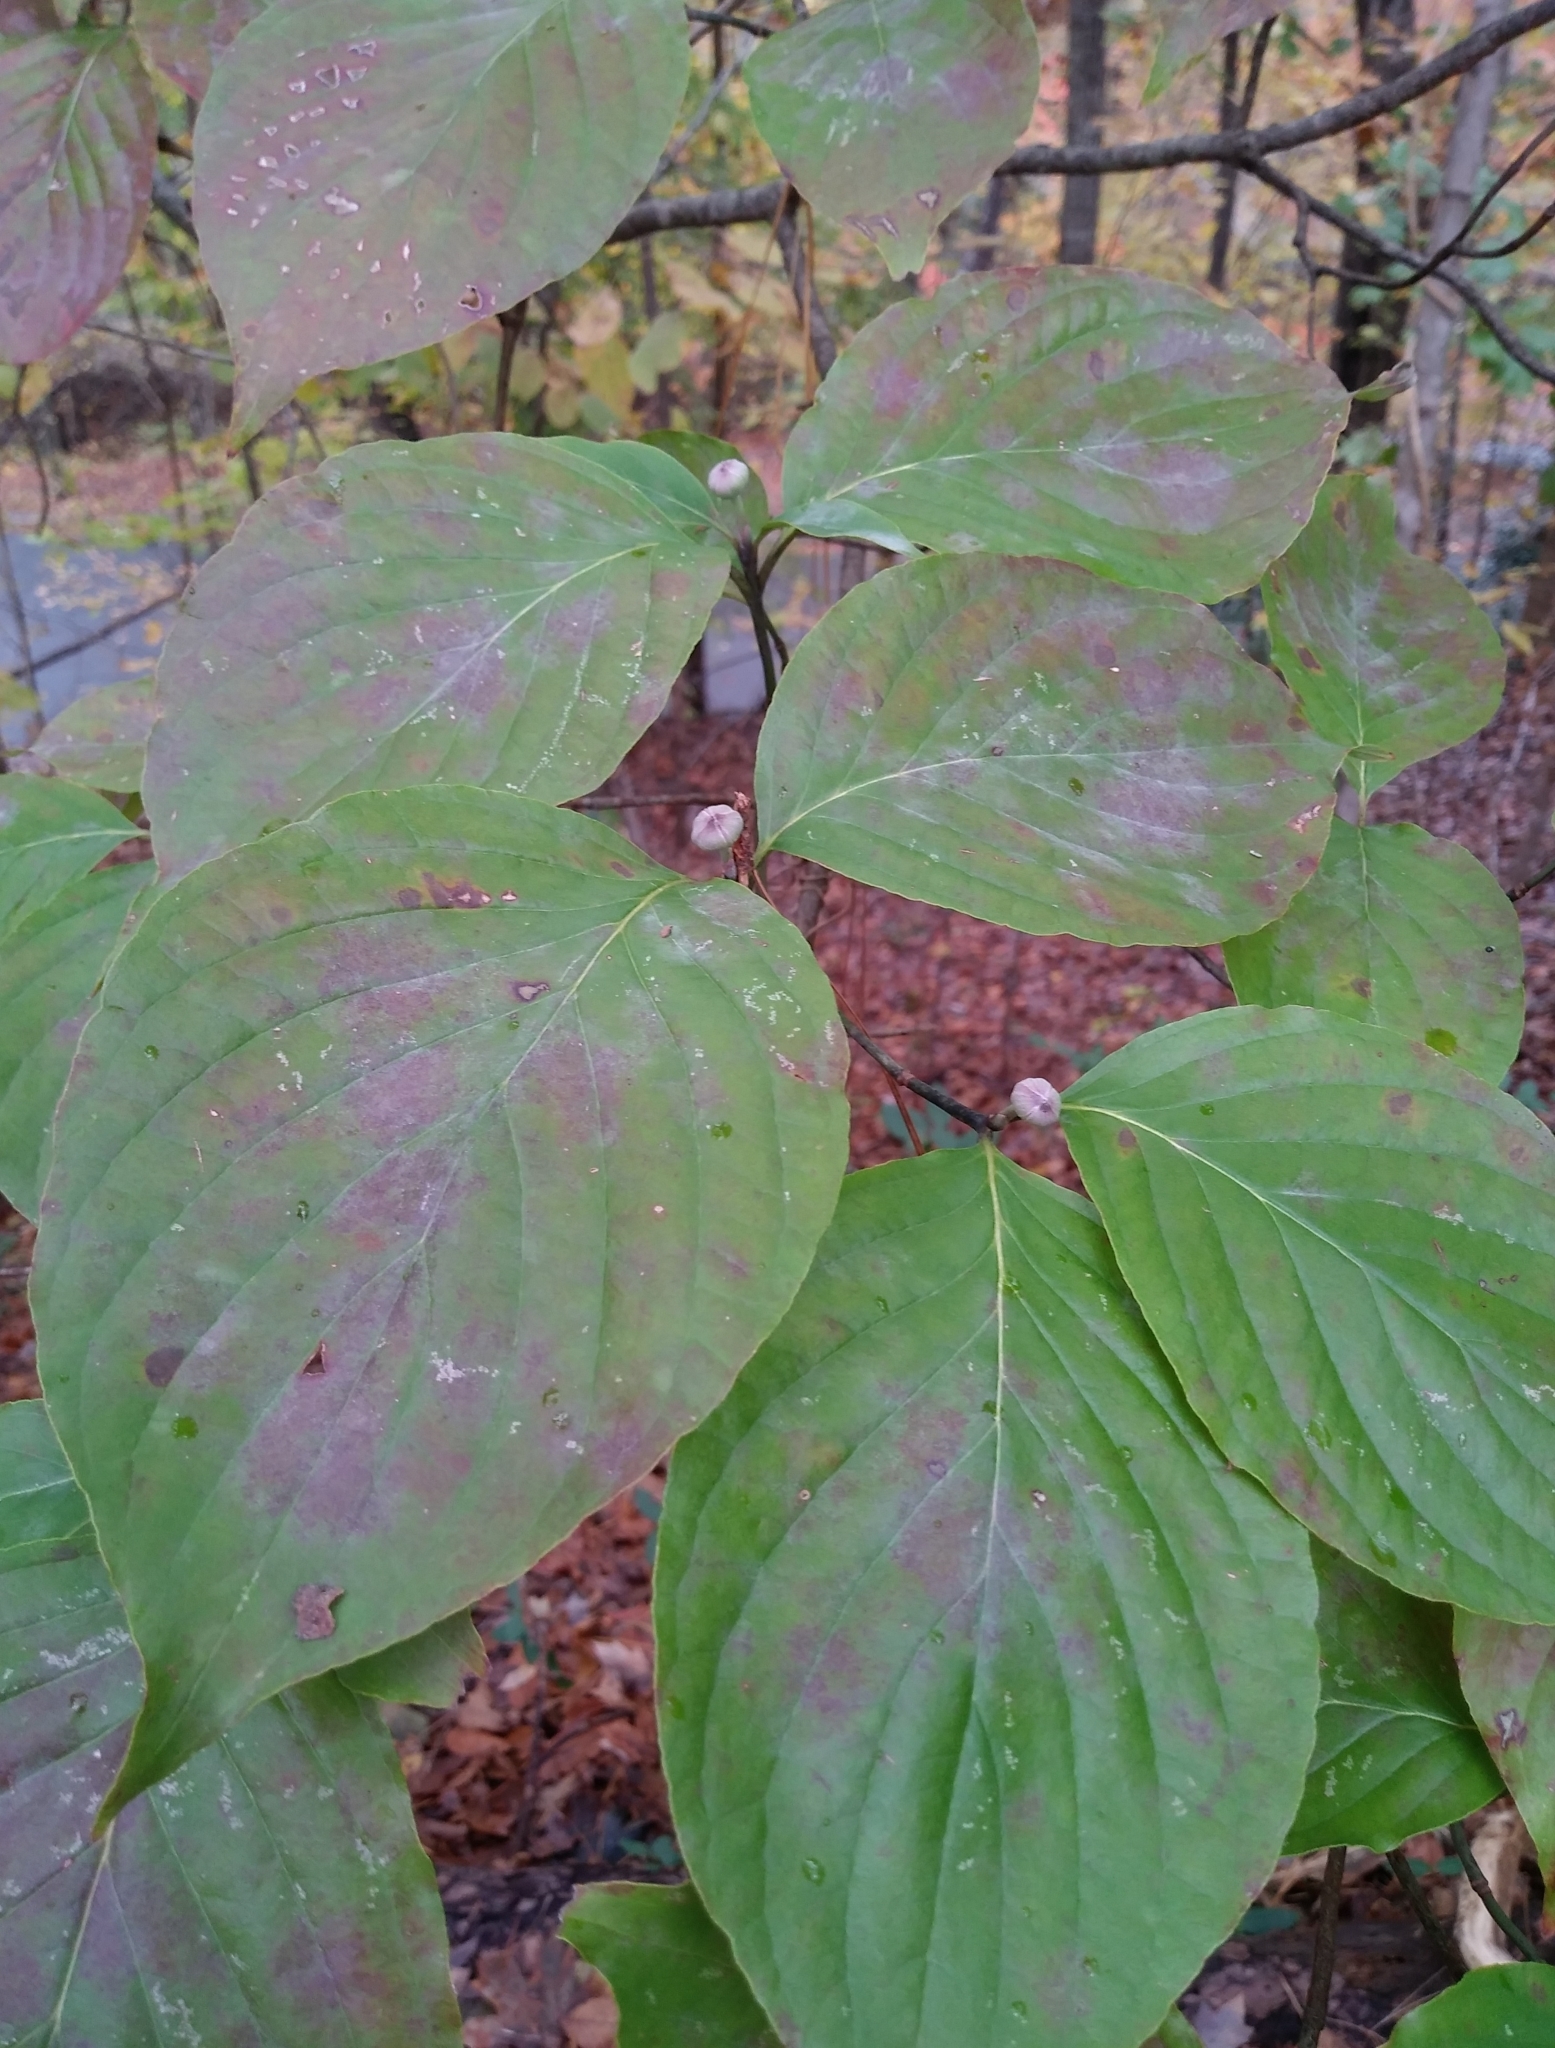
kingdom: Plantae
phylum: Tracheophyta
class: Magnoliopsida
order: Cornales
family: Cornaceae
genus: Cornus
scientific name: Cornus florida
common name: Flowering dogwood
